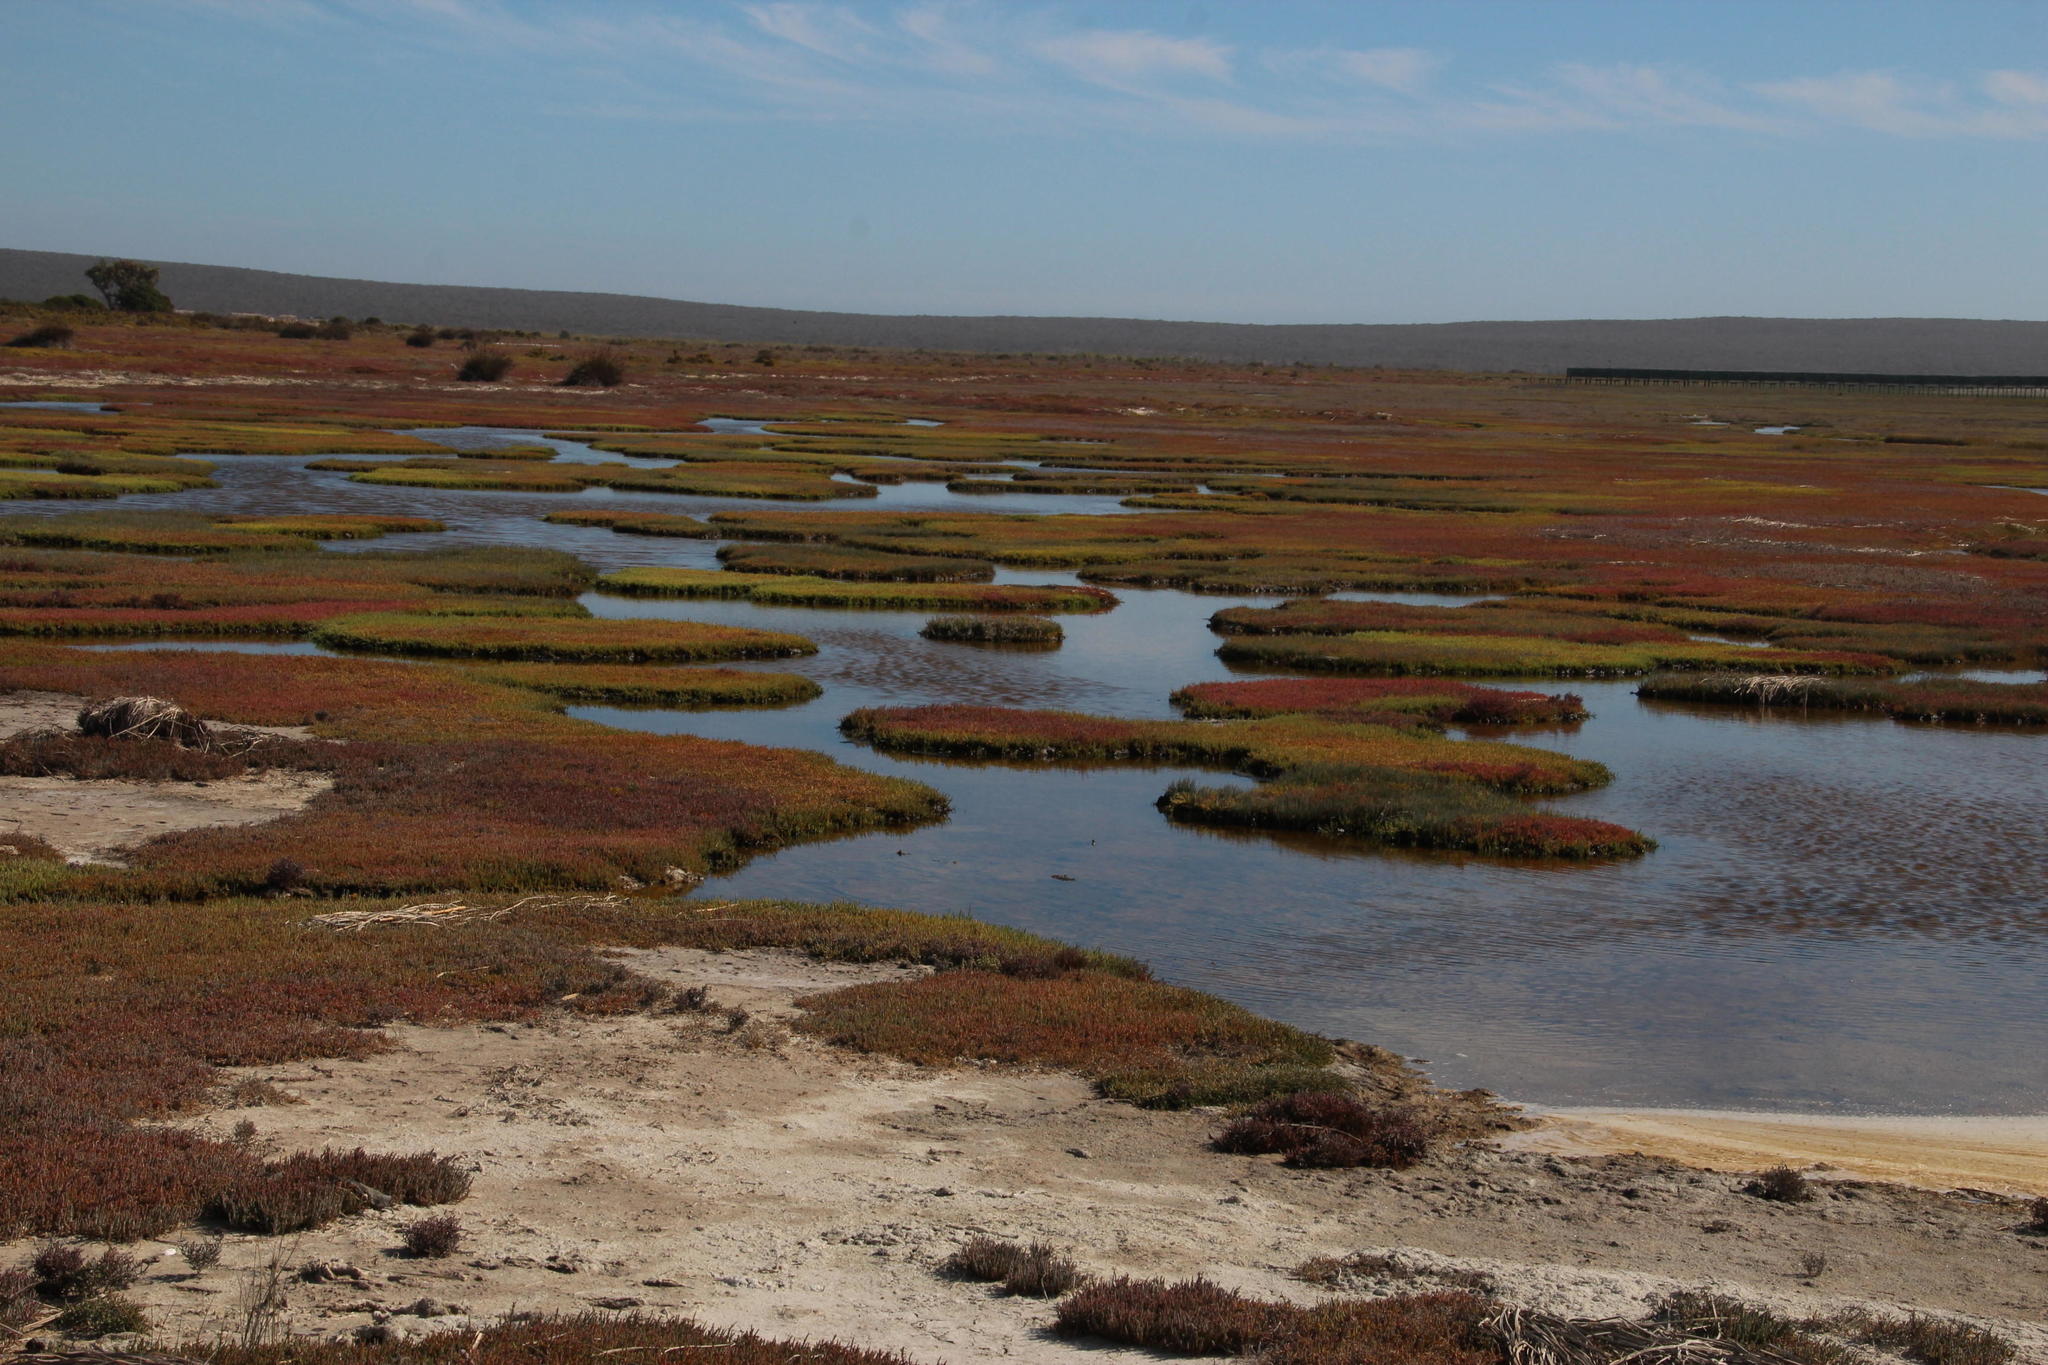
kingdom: Plantae
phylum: Tracheophyta
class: Magnoliopsida
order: Caryophyllales
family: Amaranthaceae
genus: Salicornia
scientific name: Salicornia tegetaria
